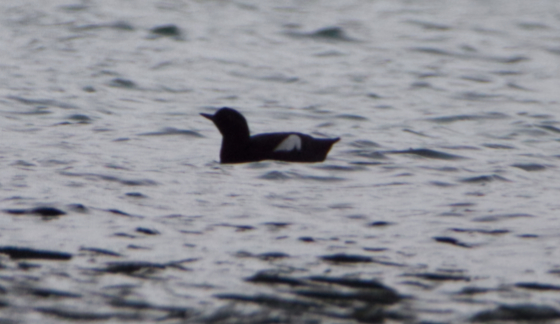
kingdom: Animalia
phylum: Chordata
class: Aves
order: Charadriiformes
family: Alcidae
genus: Cepphus
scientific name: Cepphus columba
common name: Pigeon guillemot
